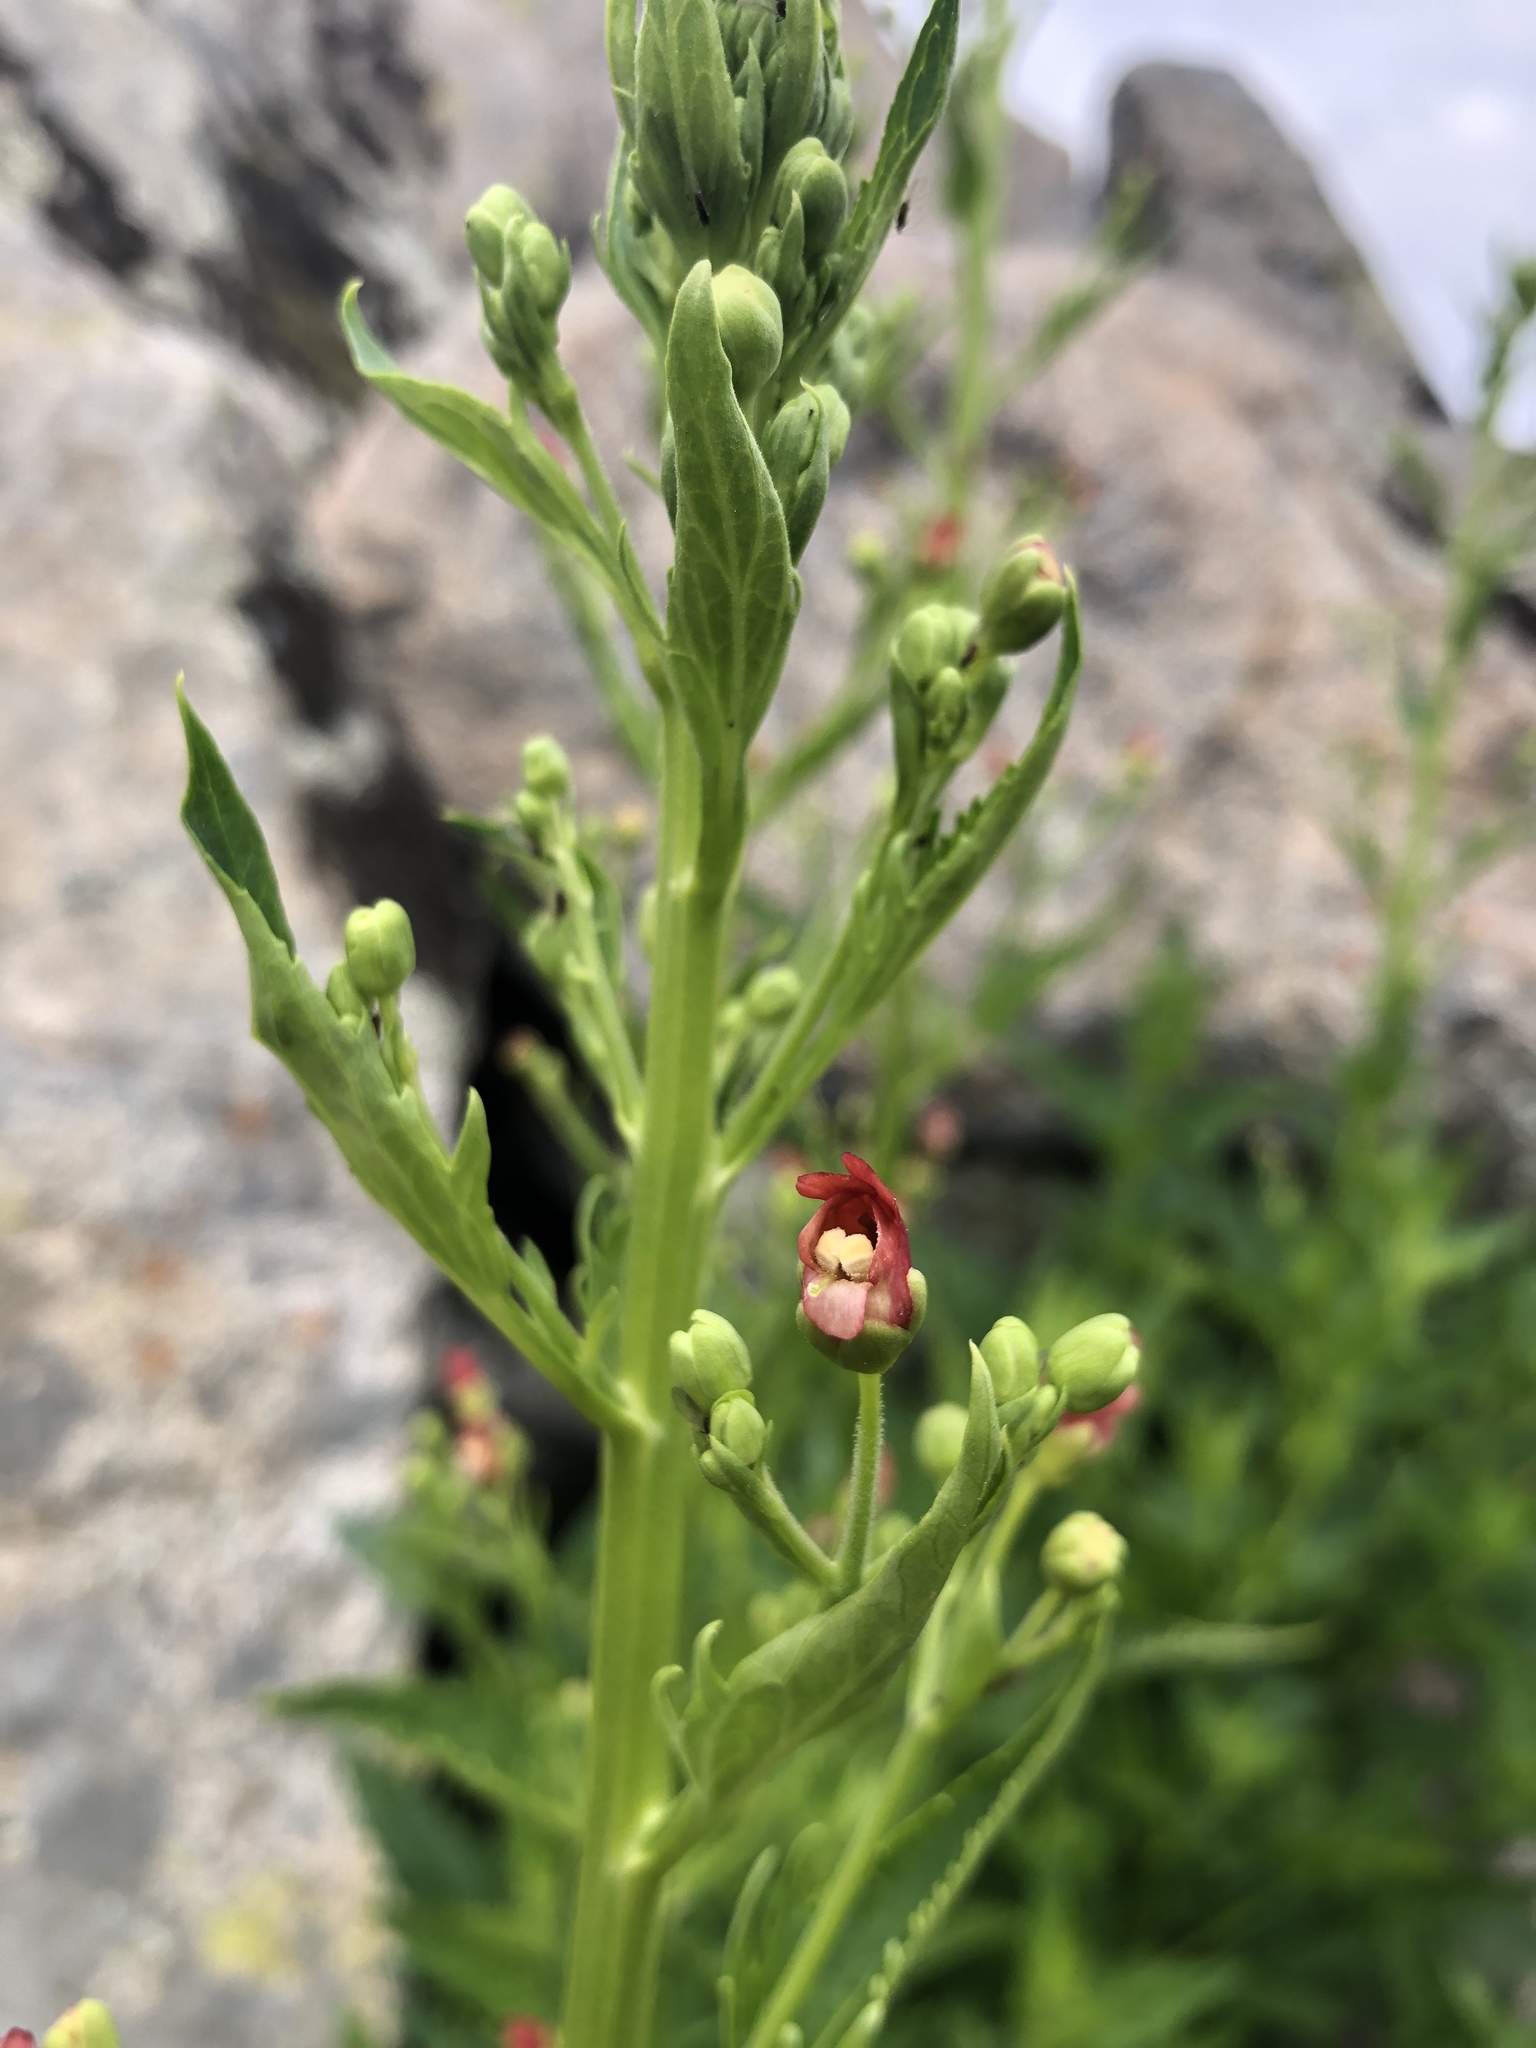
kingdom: Plantae
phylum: Tracheophyta
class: Magnoliopsida
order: Lamiales
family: Scrophulariaceae
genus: Scrophularia
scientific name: Scrophularia californica
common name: California figwort
